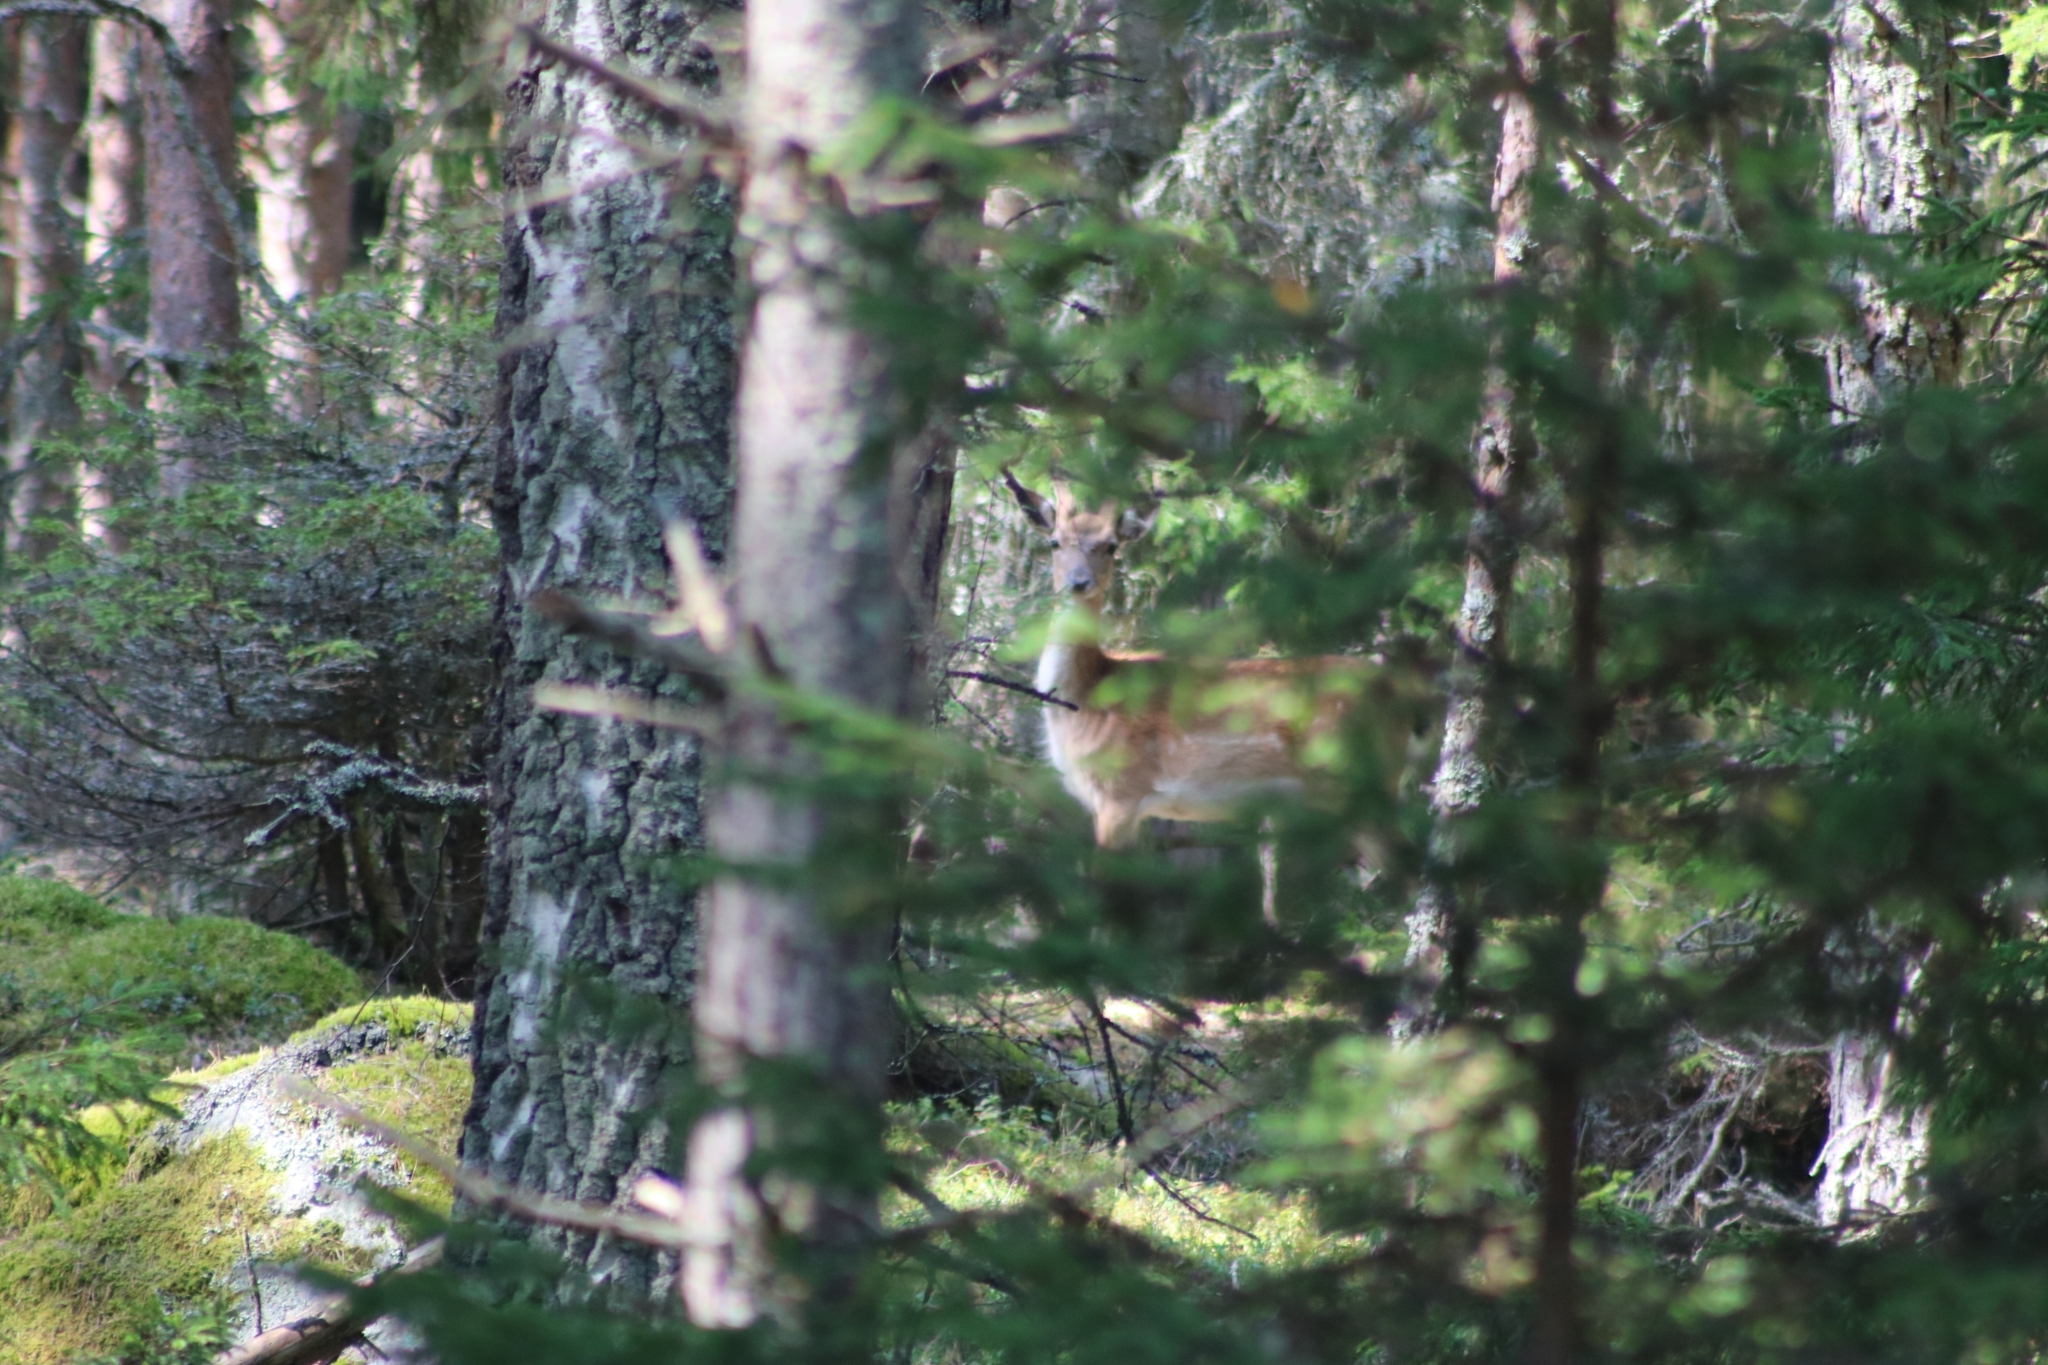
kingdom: Animalia
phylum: Chordata
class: Mammalia
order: Artiodactyla
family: Cervidae
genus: Dama
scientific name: Dama dama
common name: Fallow deer
